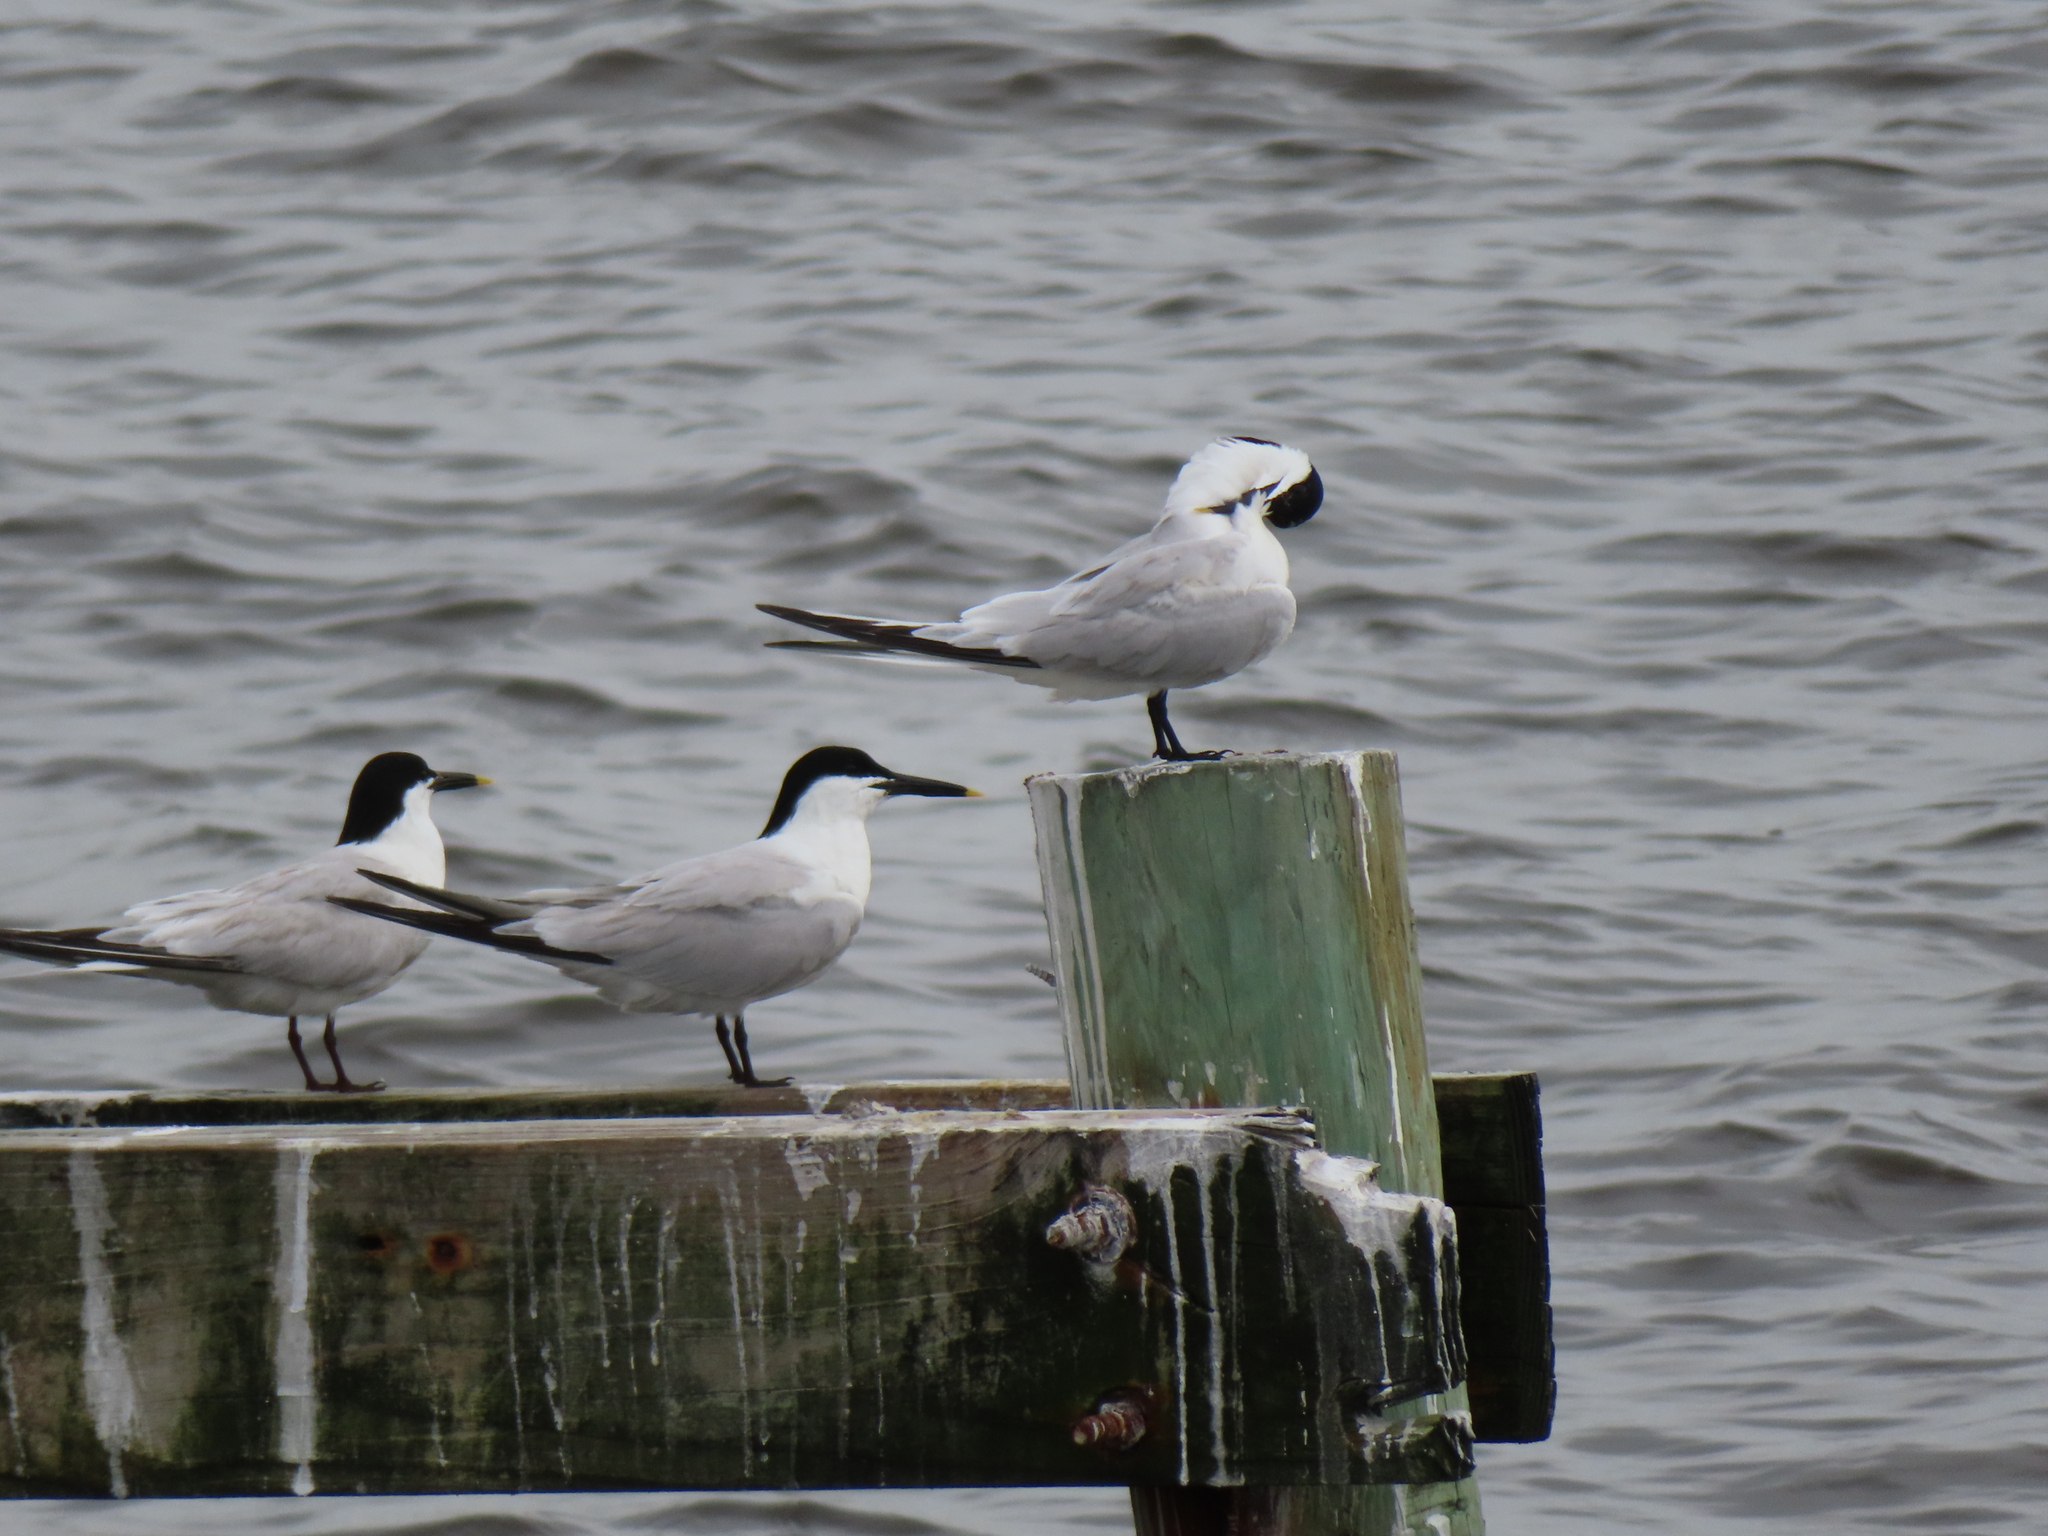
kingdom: Animalia
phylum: Chordata
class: Aves
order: Charadriiformes
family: Laridae
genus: Thalasseus
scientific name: Thalasseus sandvicensis
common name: Sandwich tern
